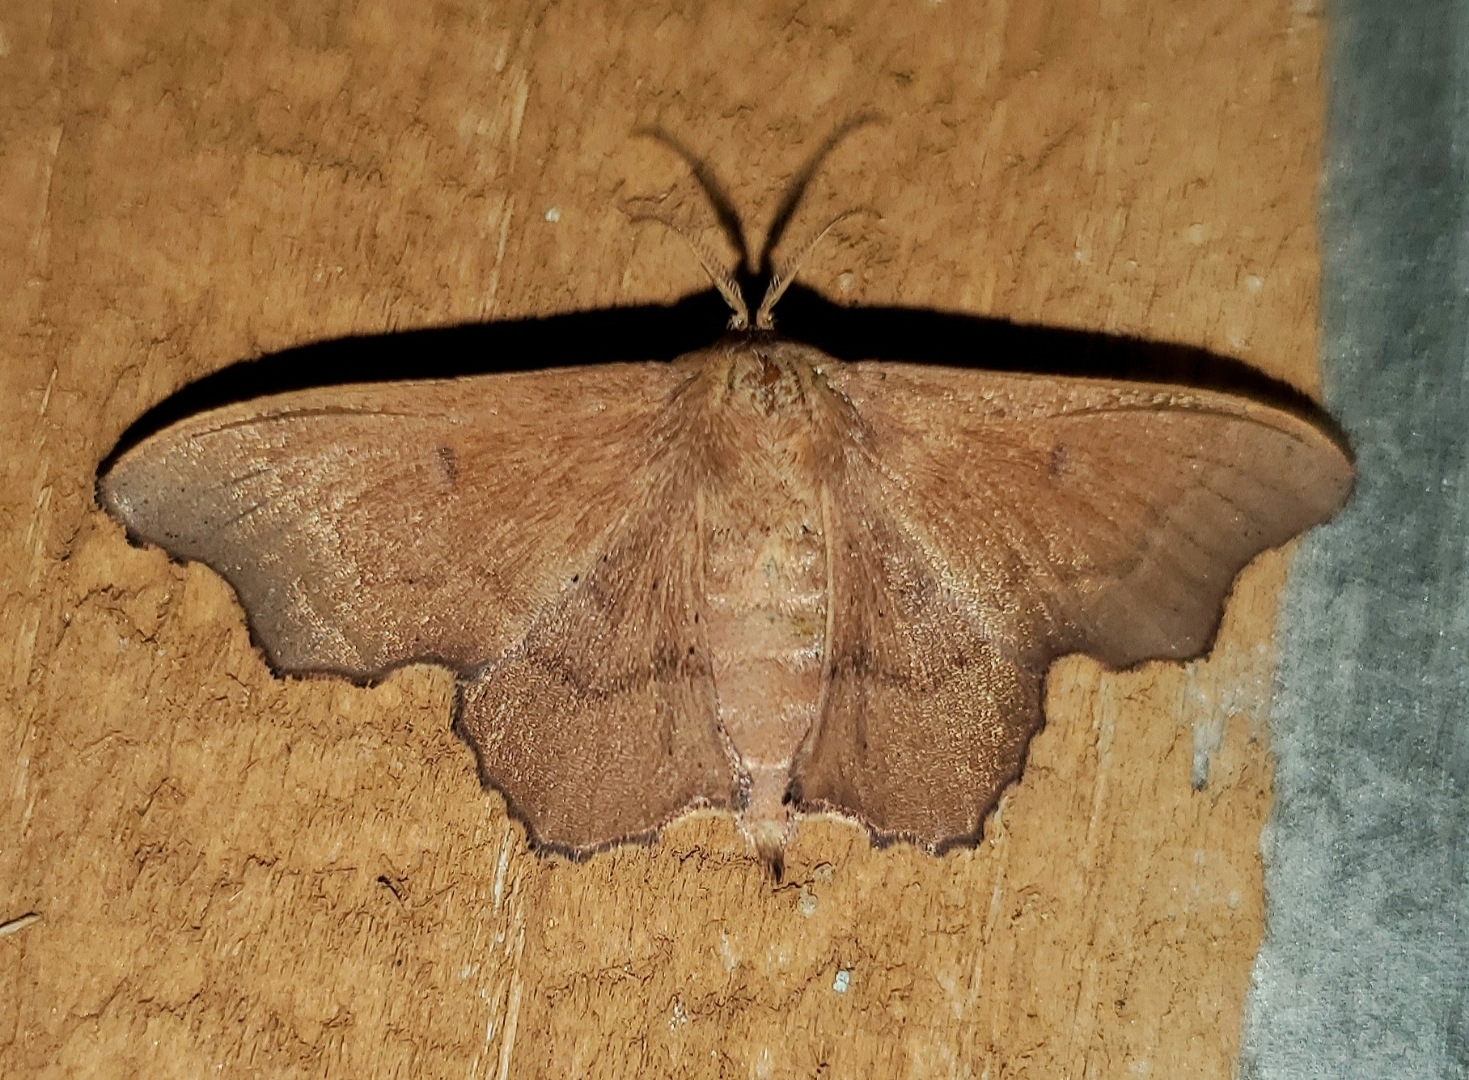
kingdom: Animalia
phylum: Arthropoda
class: Insecta
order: Lepidoptera
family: Mimallonidae
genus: Lacosoma
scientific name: Lacosoma chiridota
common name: Scalloped sack-bearer moth
